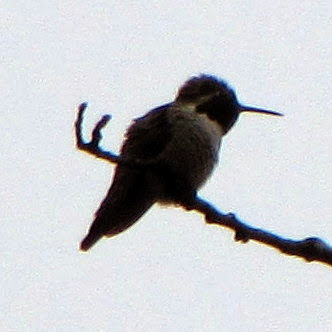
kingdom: Animalia
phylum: Chordata
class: Aves
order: Apodiformes
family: Trochilidae
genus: Calypte
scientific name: Calypte anna
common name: Anna's hummingbird
